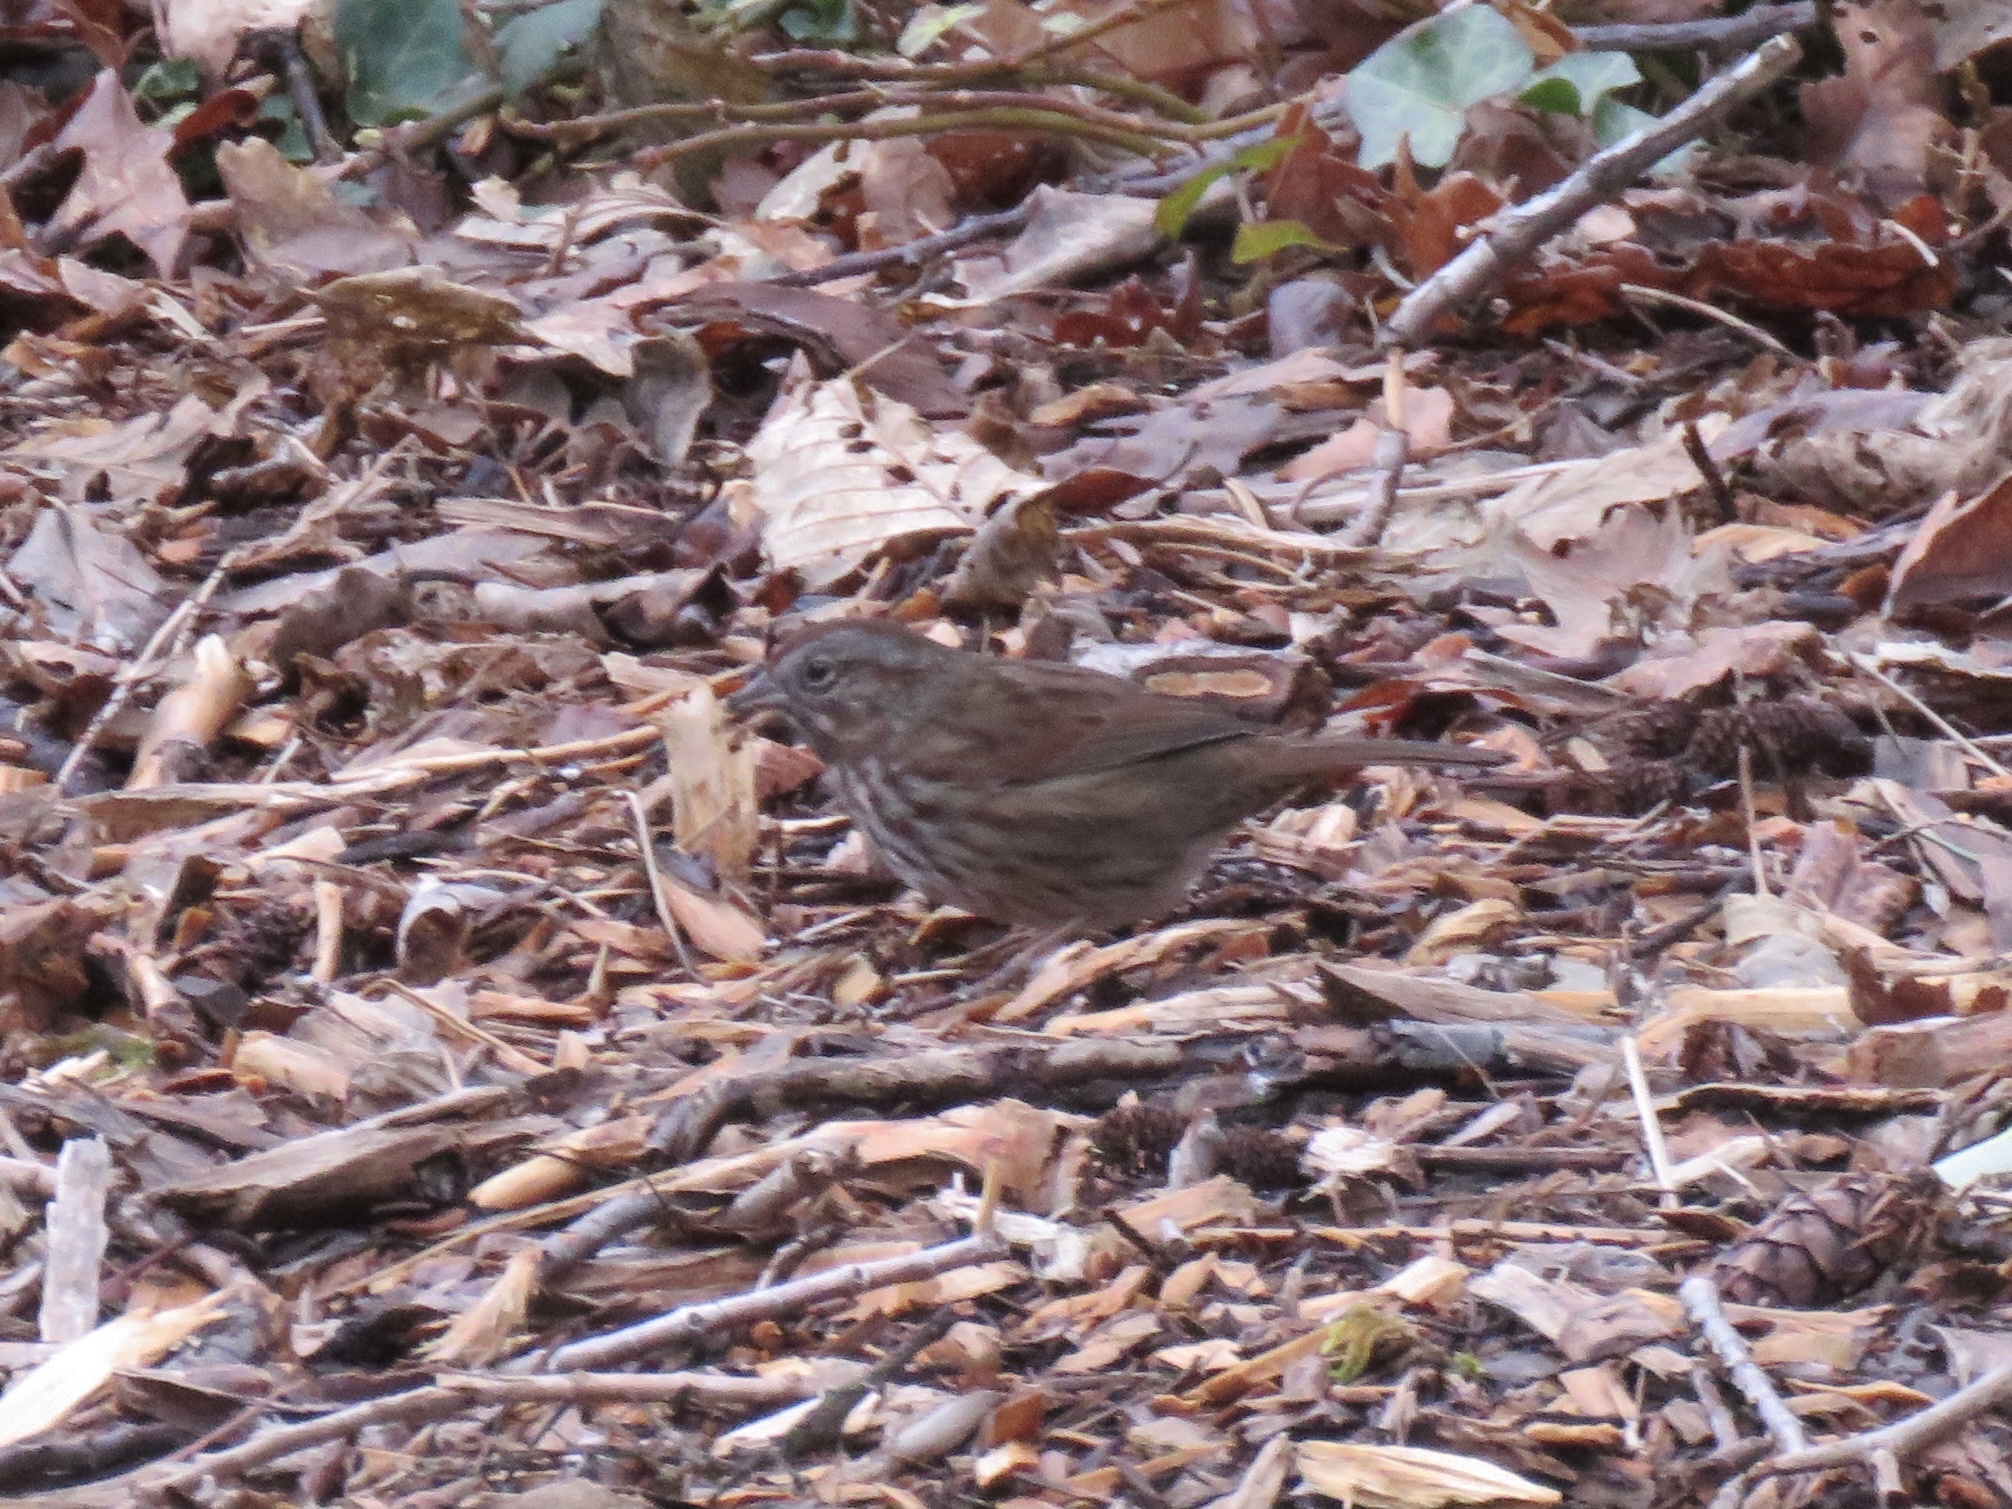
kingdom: Animalia
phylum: Chordata
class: Aves
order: Passeriformes
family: Passerellidae
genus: Melospiza
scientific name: Melospiza melodia
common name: Song sparrow
